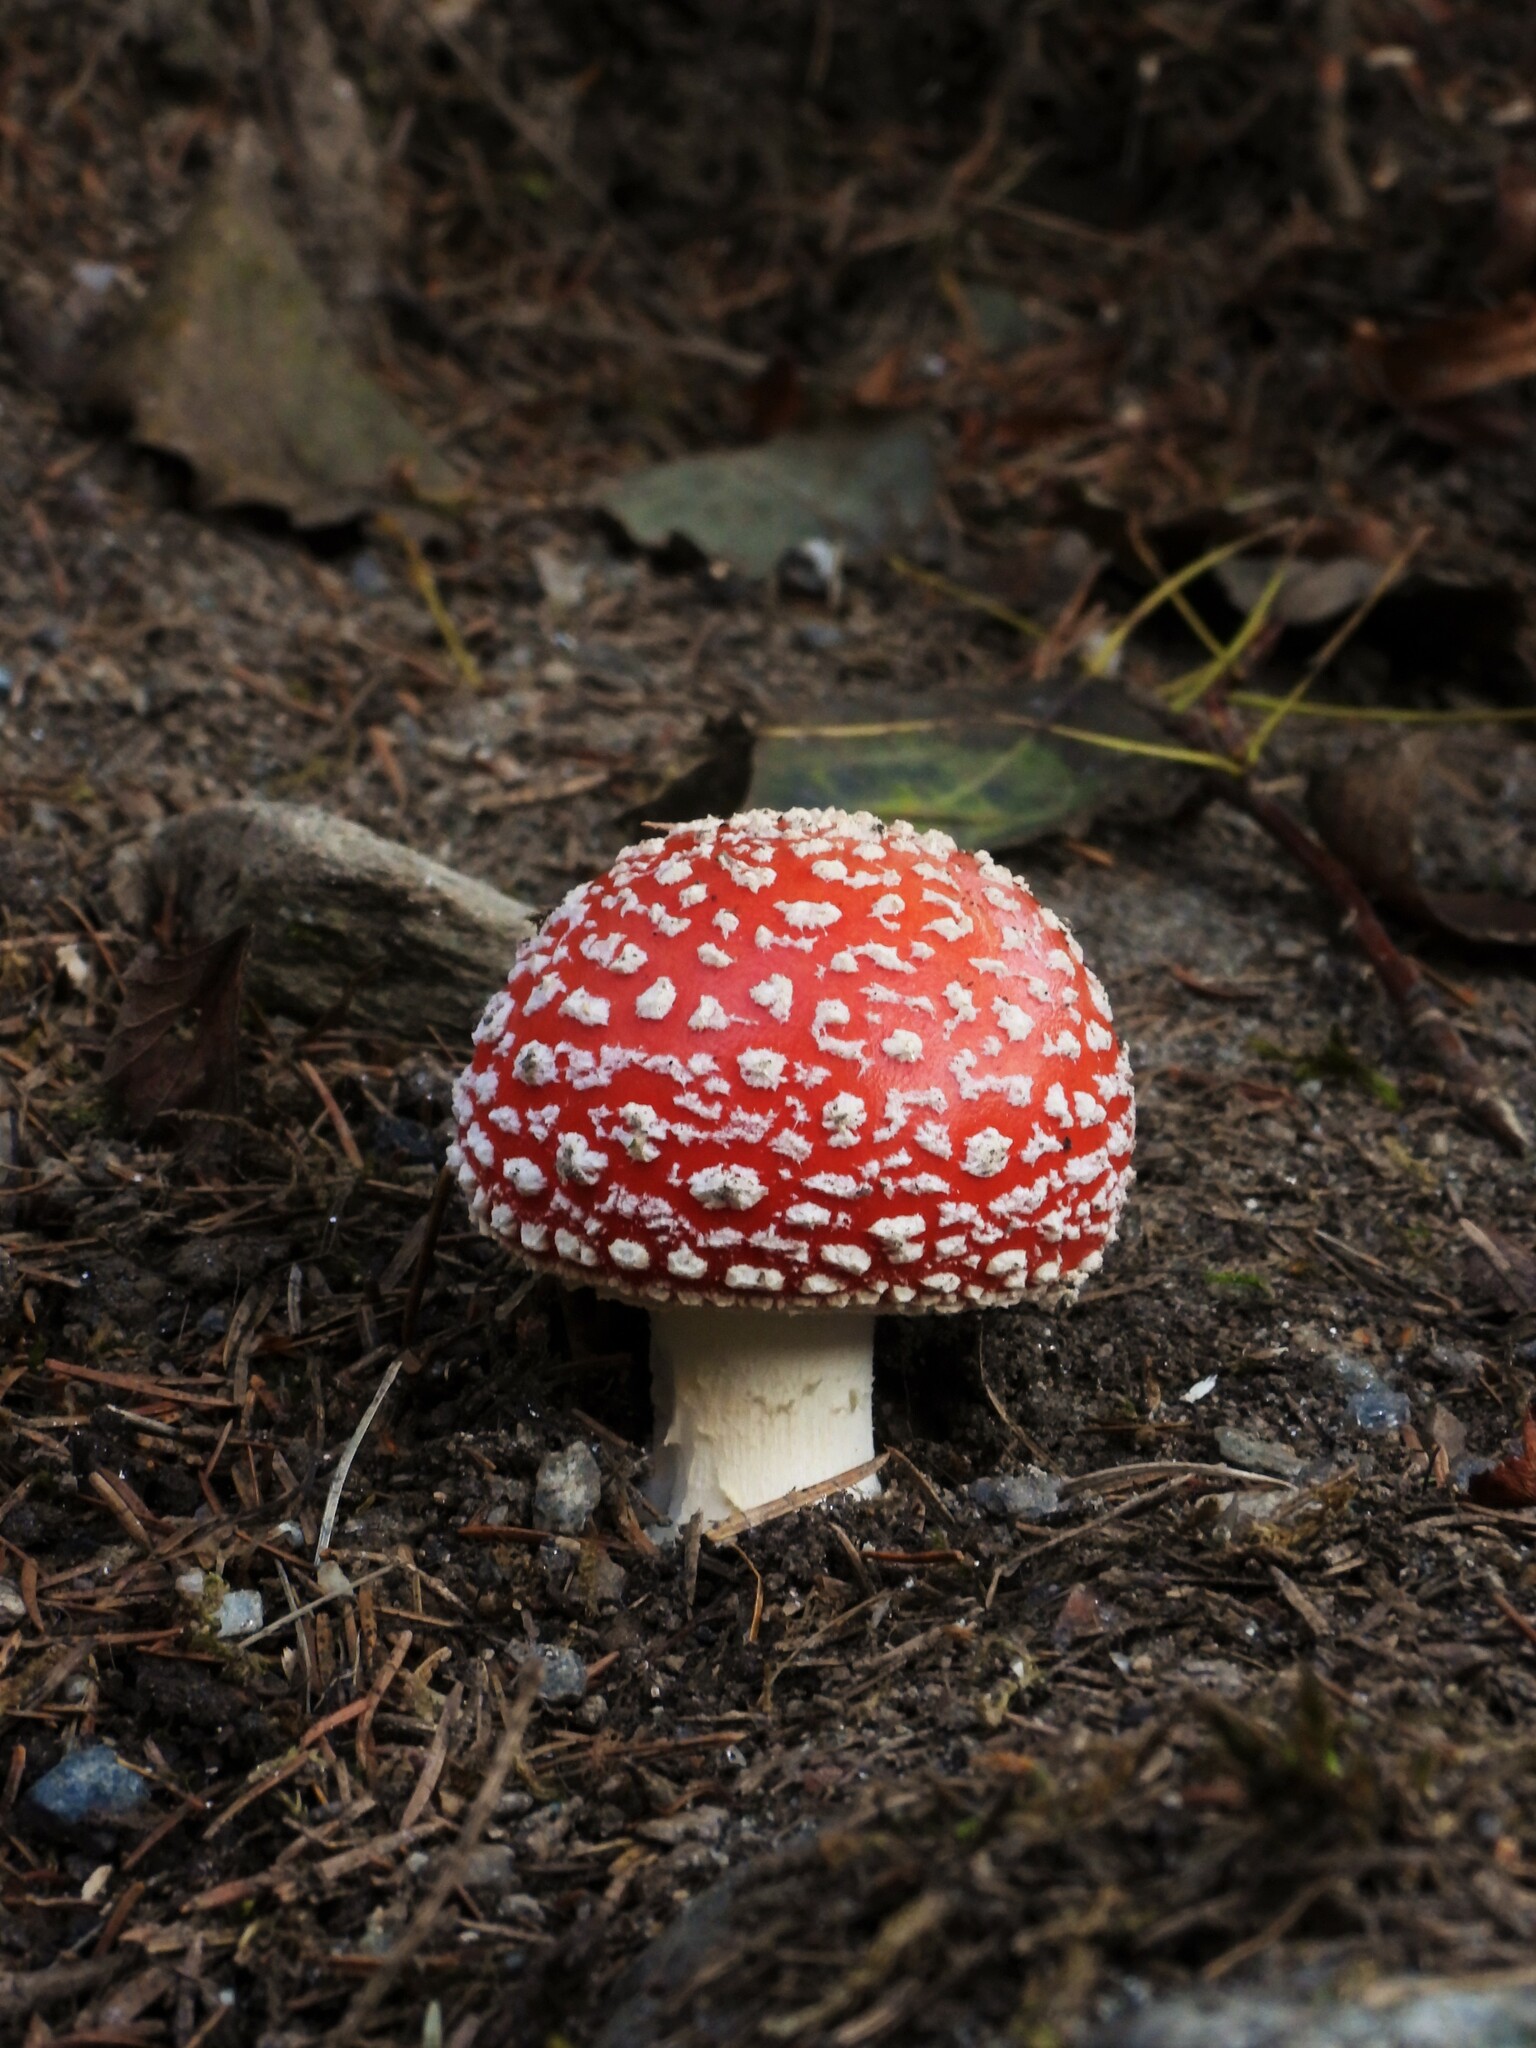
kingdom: Fungi
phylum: Basidiomycota
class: Agaricomycetes
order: Agaricales
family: Amanitaceae
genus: Amanita
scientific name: Amanita muscaria
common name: Fly agaric
